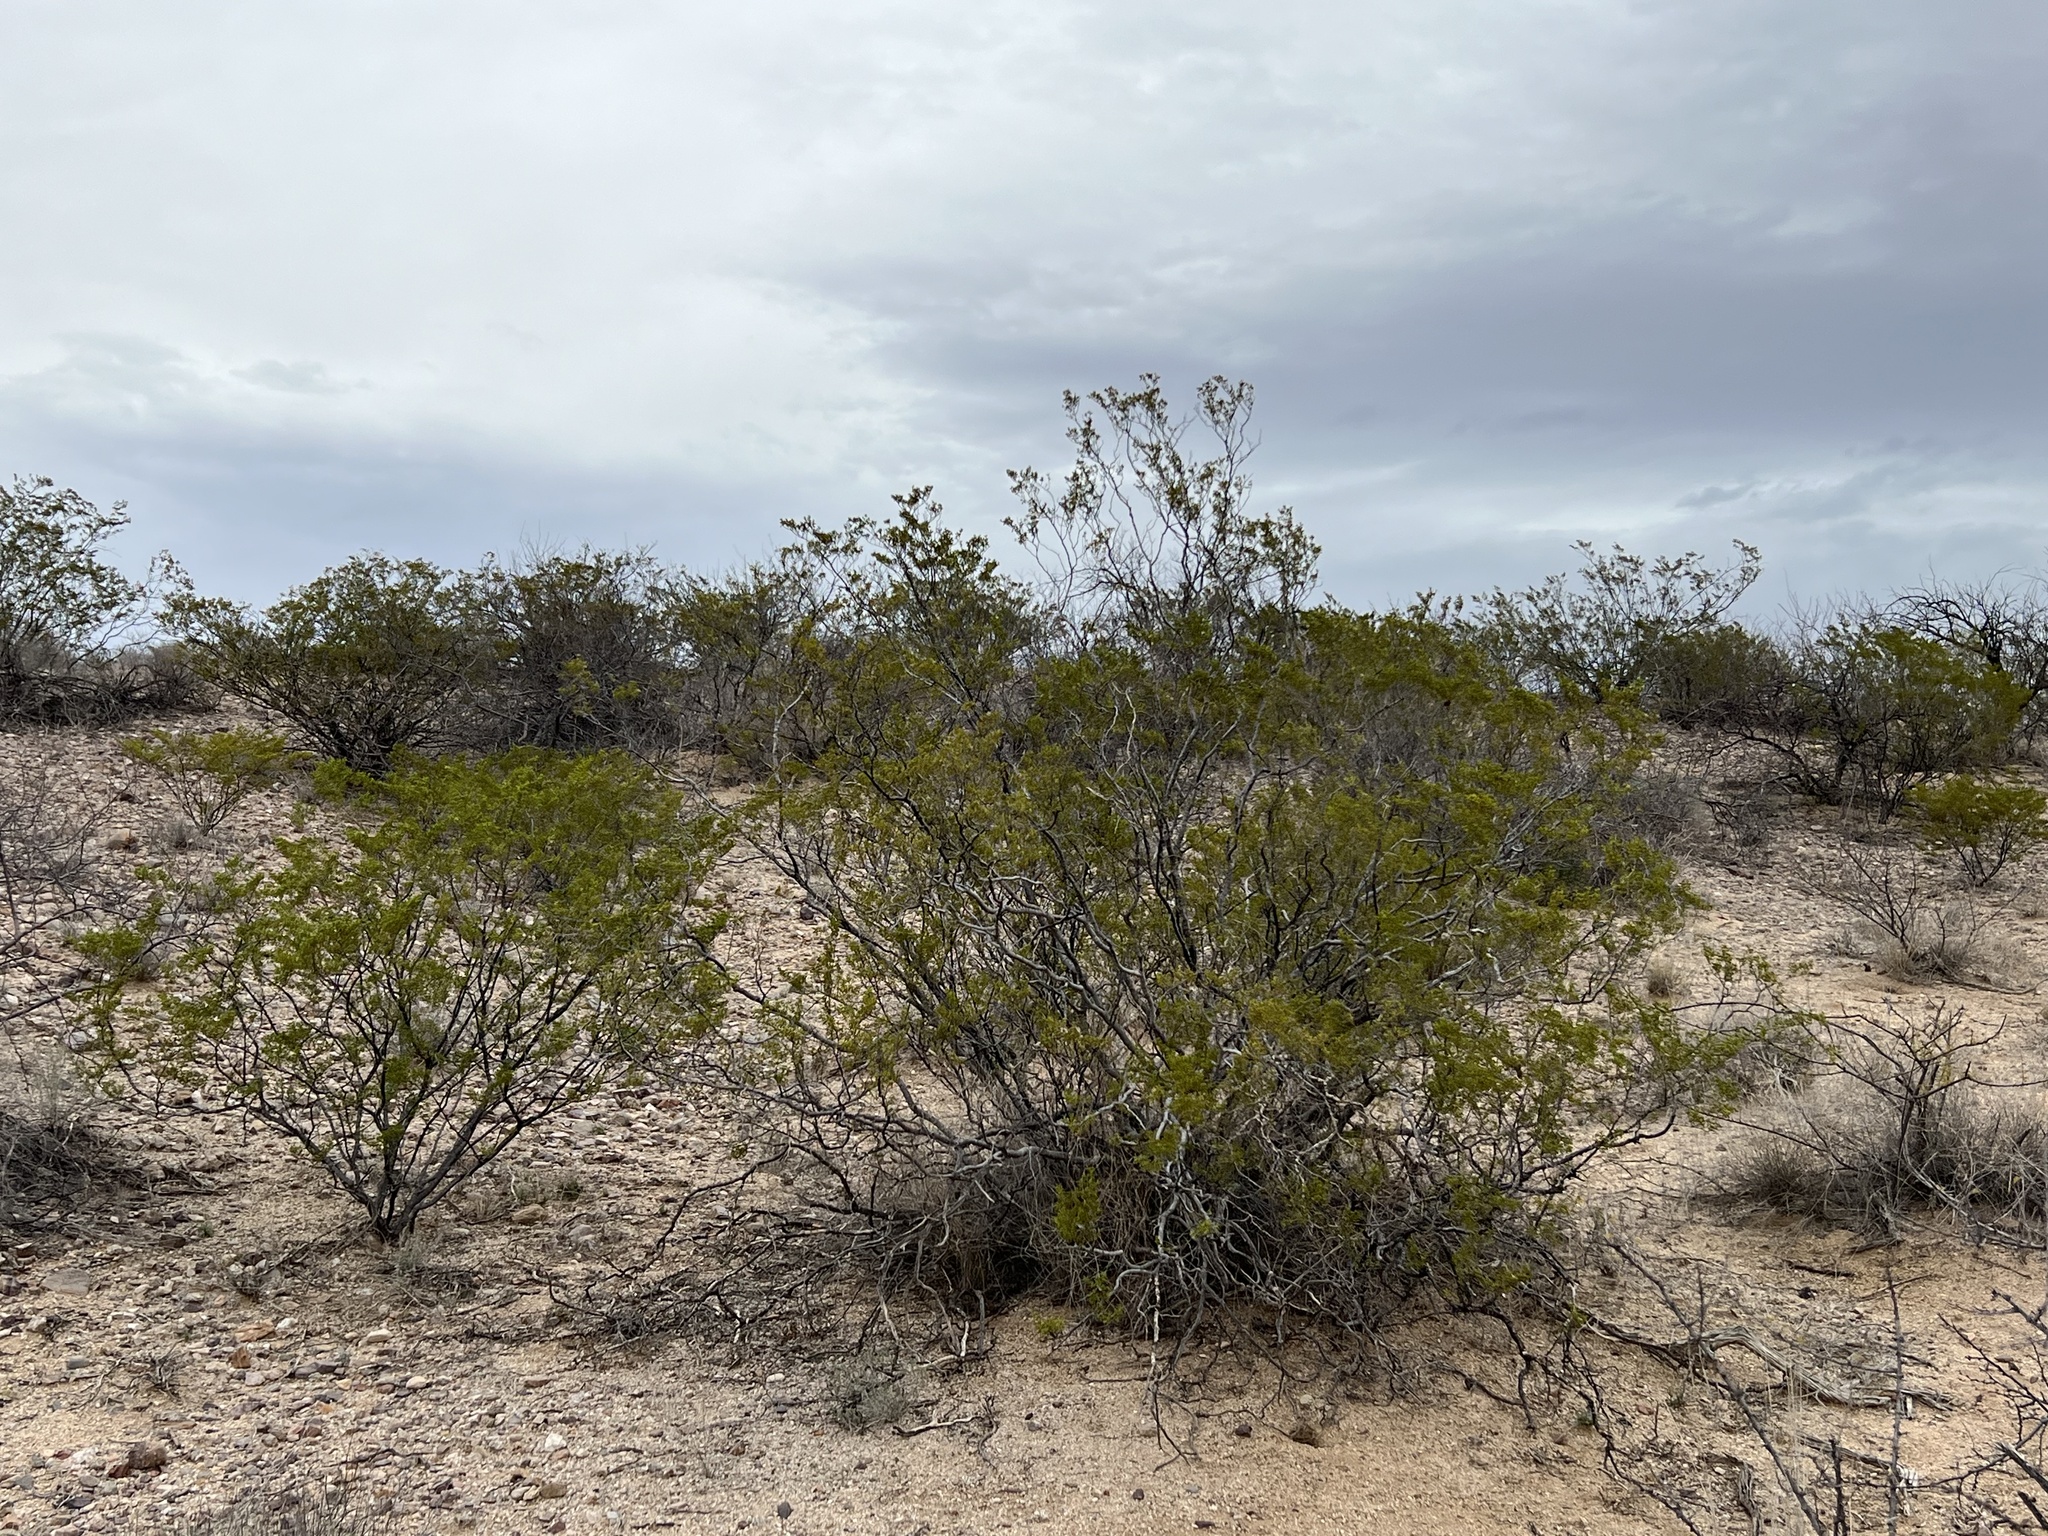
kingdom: Plantae
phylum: Tracheophyta
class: Magnoliopsida
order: Zygophyllales
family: Zygophyllaceae
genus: Larrea
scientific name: Larrea tridentata
